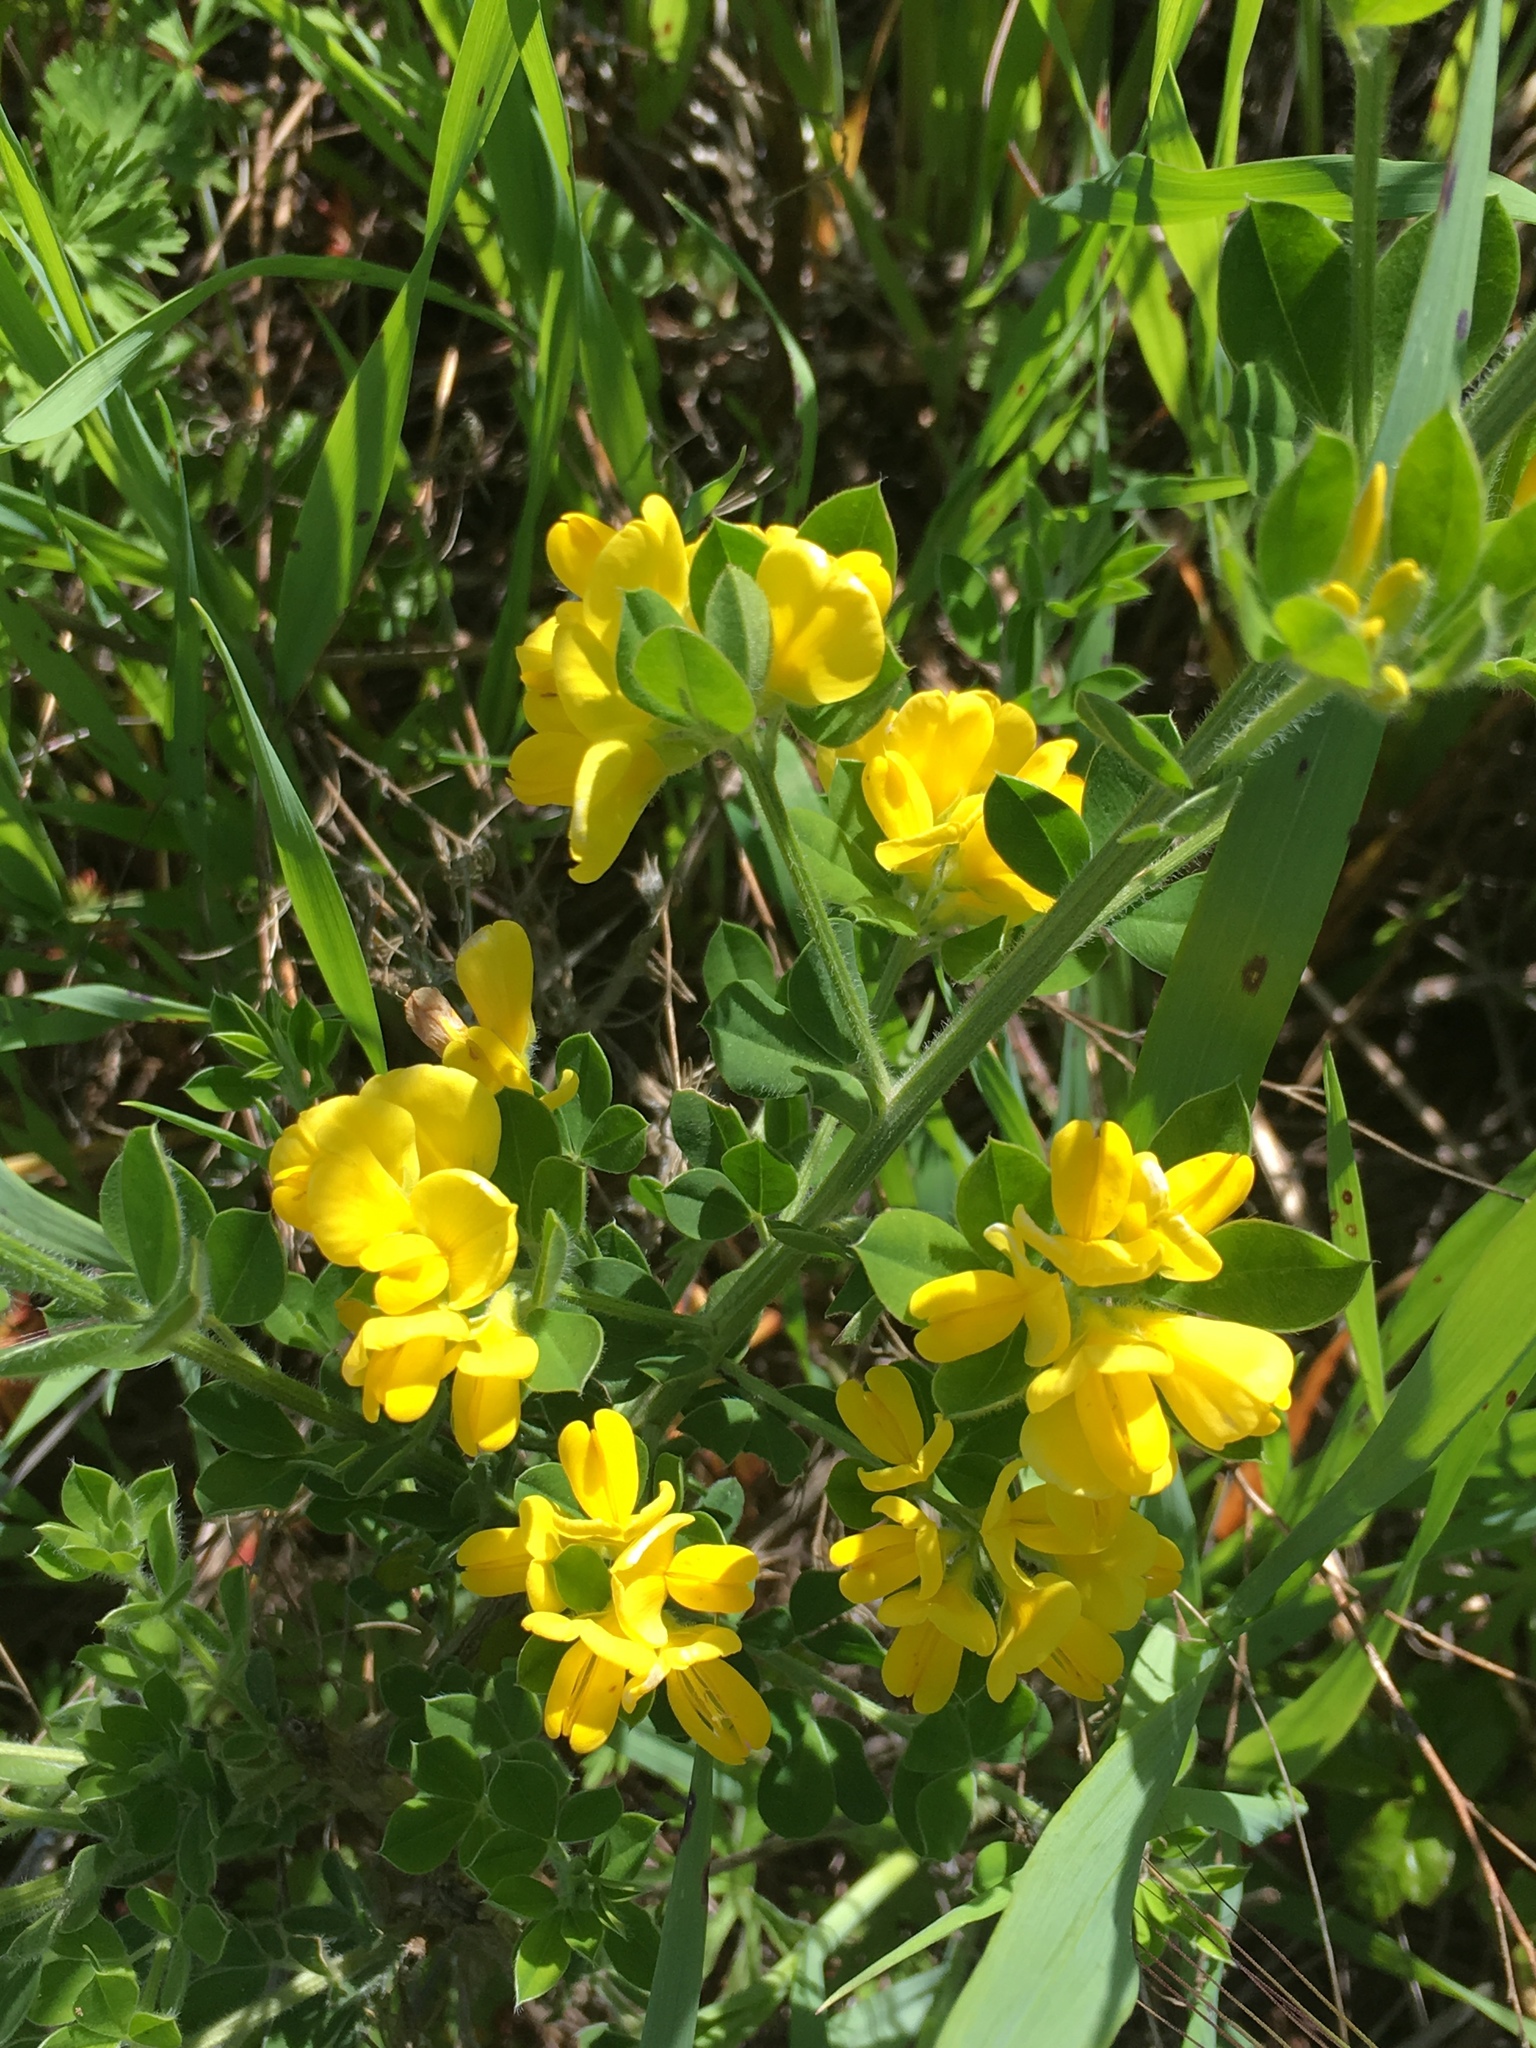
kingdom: Plantae
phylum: Tracheophyta
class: Magnoliopsida
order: Fabales
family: Fabaceae
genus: Genista
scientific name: Genista monspessulana
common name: Montpellier broom
